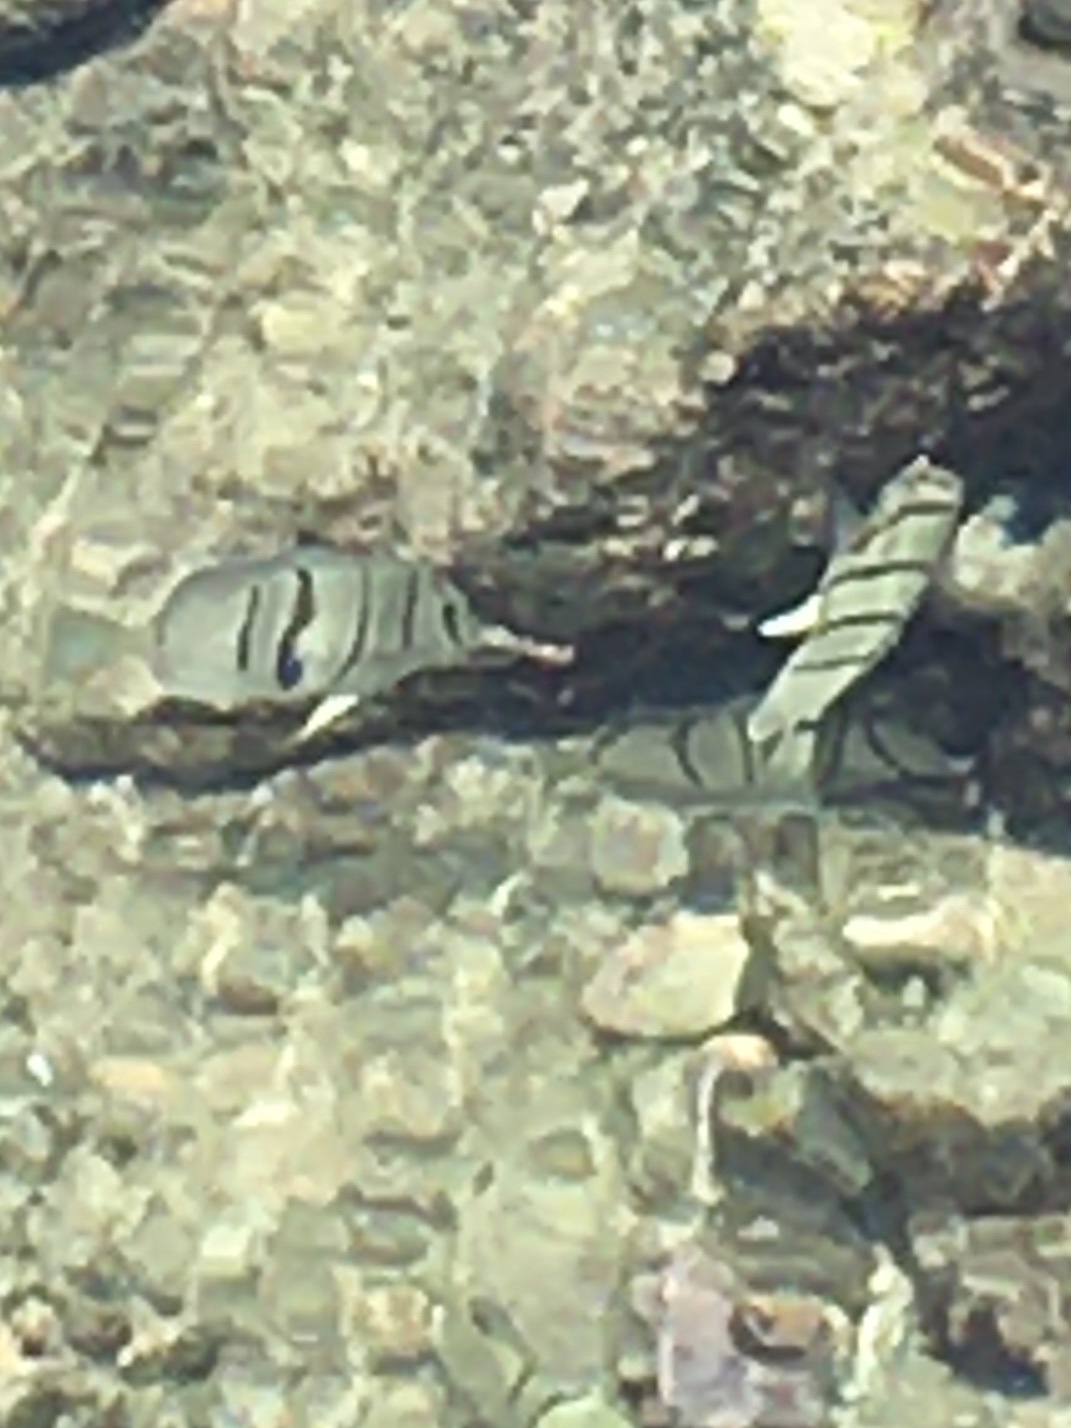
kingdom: Animalia
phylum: Chordata
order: Perciformes
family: Acanthuridae
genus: Acanthurus
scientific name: Acanthurus triostegus
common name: Convict surgeonfish
